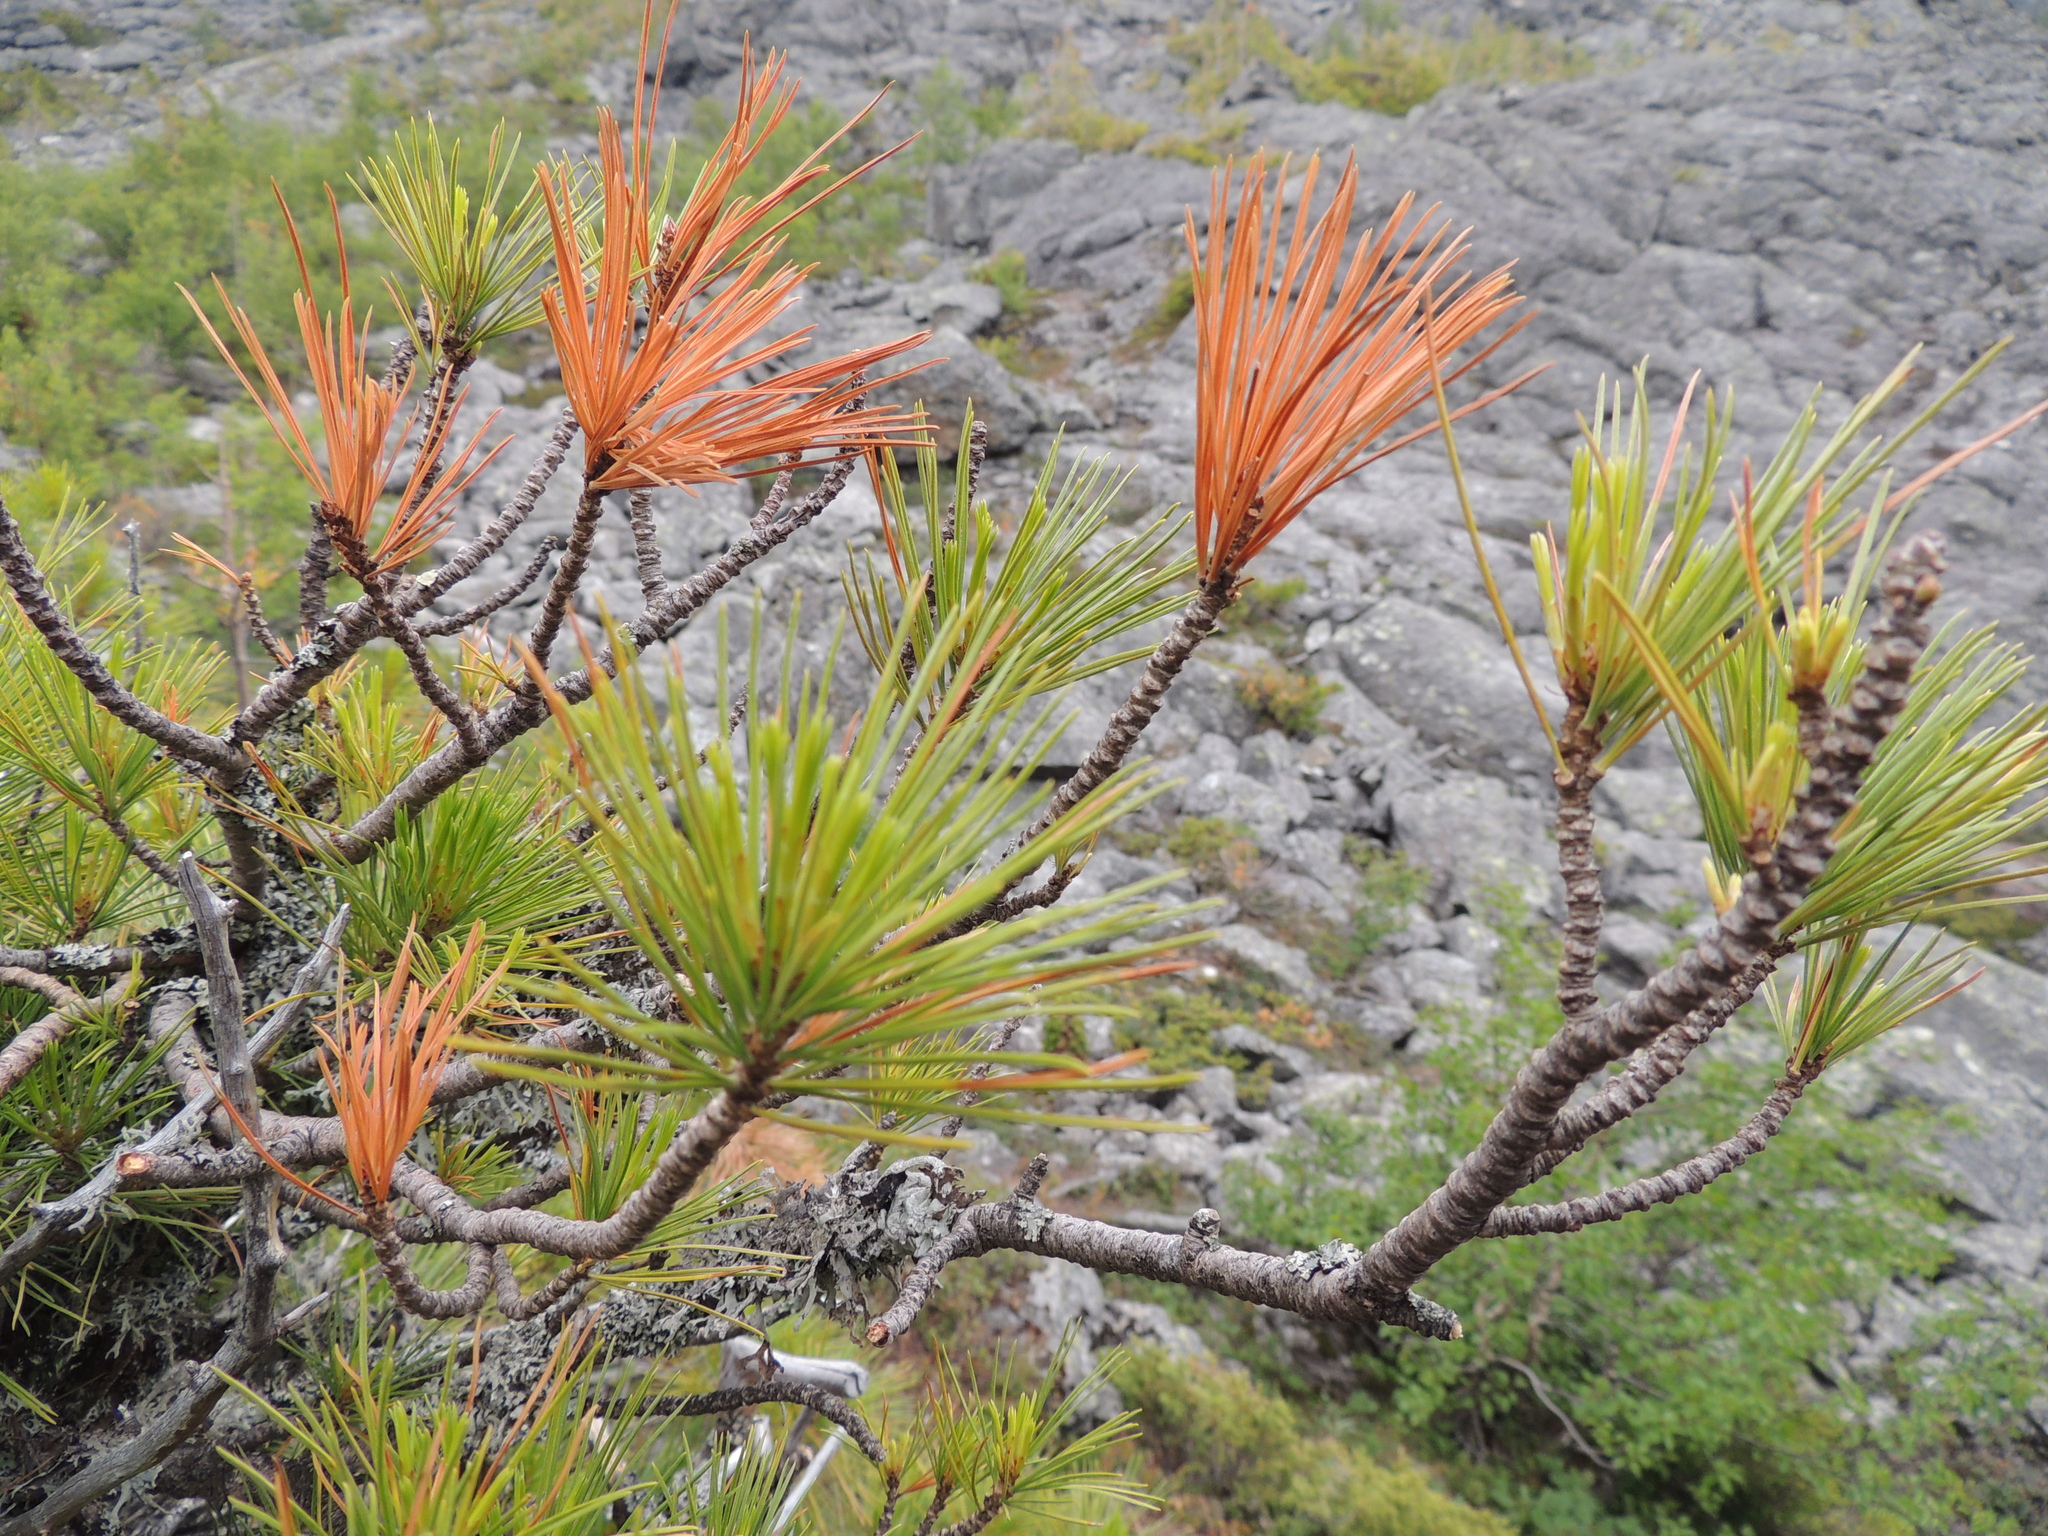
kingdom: Plantae
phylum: Tracheophyta
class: Pinopsida
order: Pinales
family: Pinaceae
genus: Pinus
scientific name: Pinus sibirica
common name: Siberian pine
